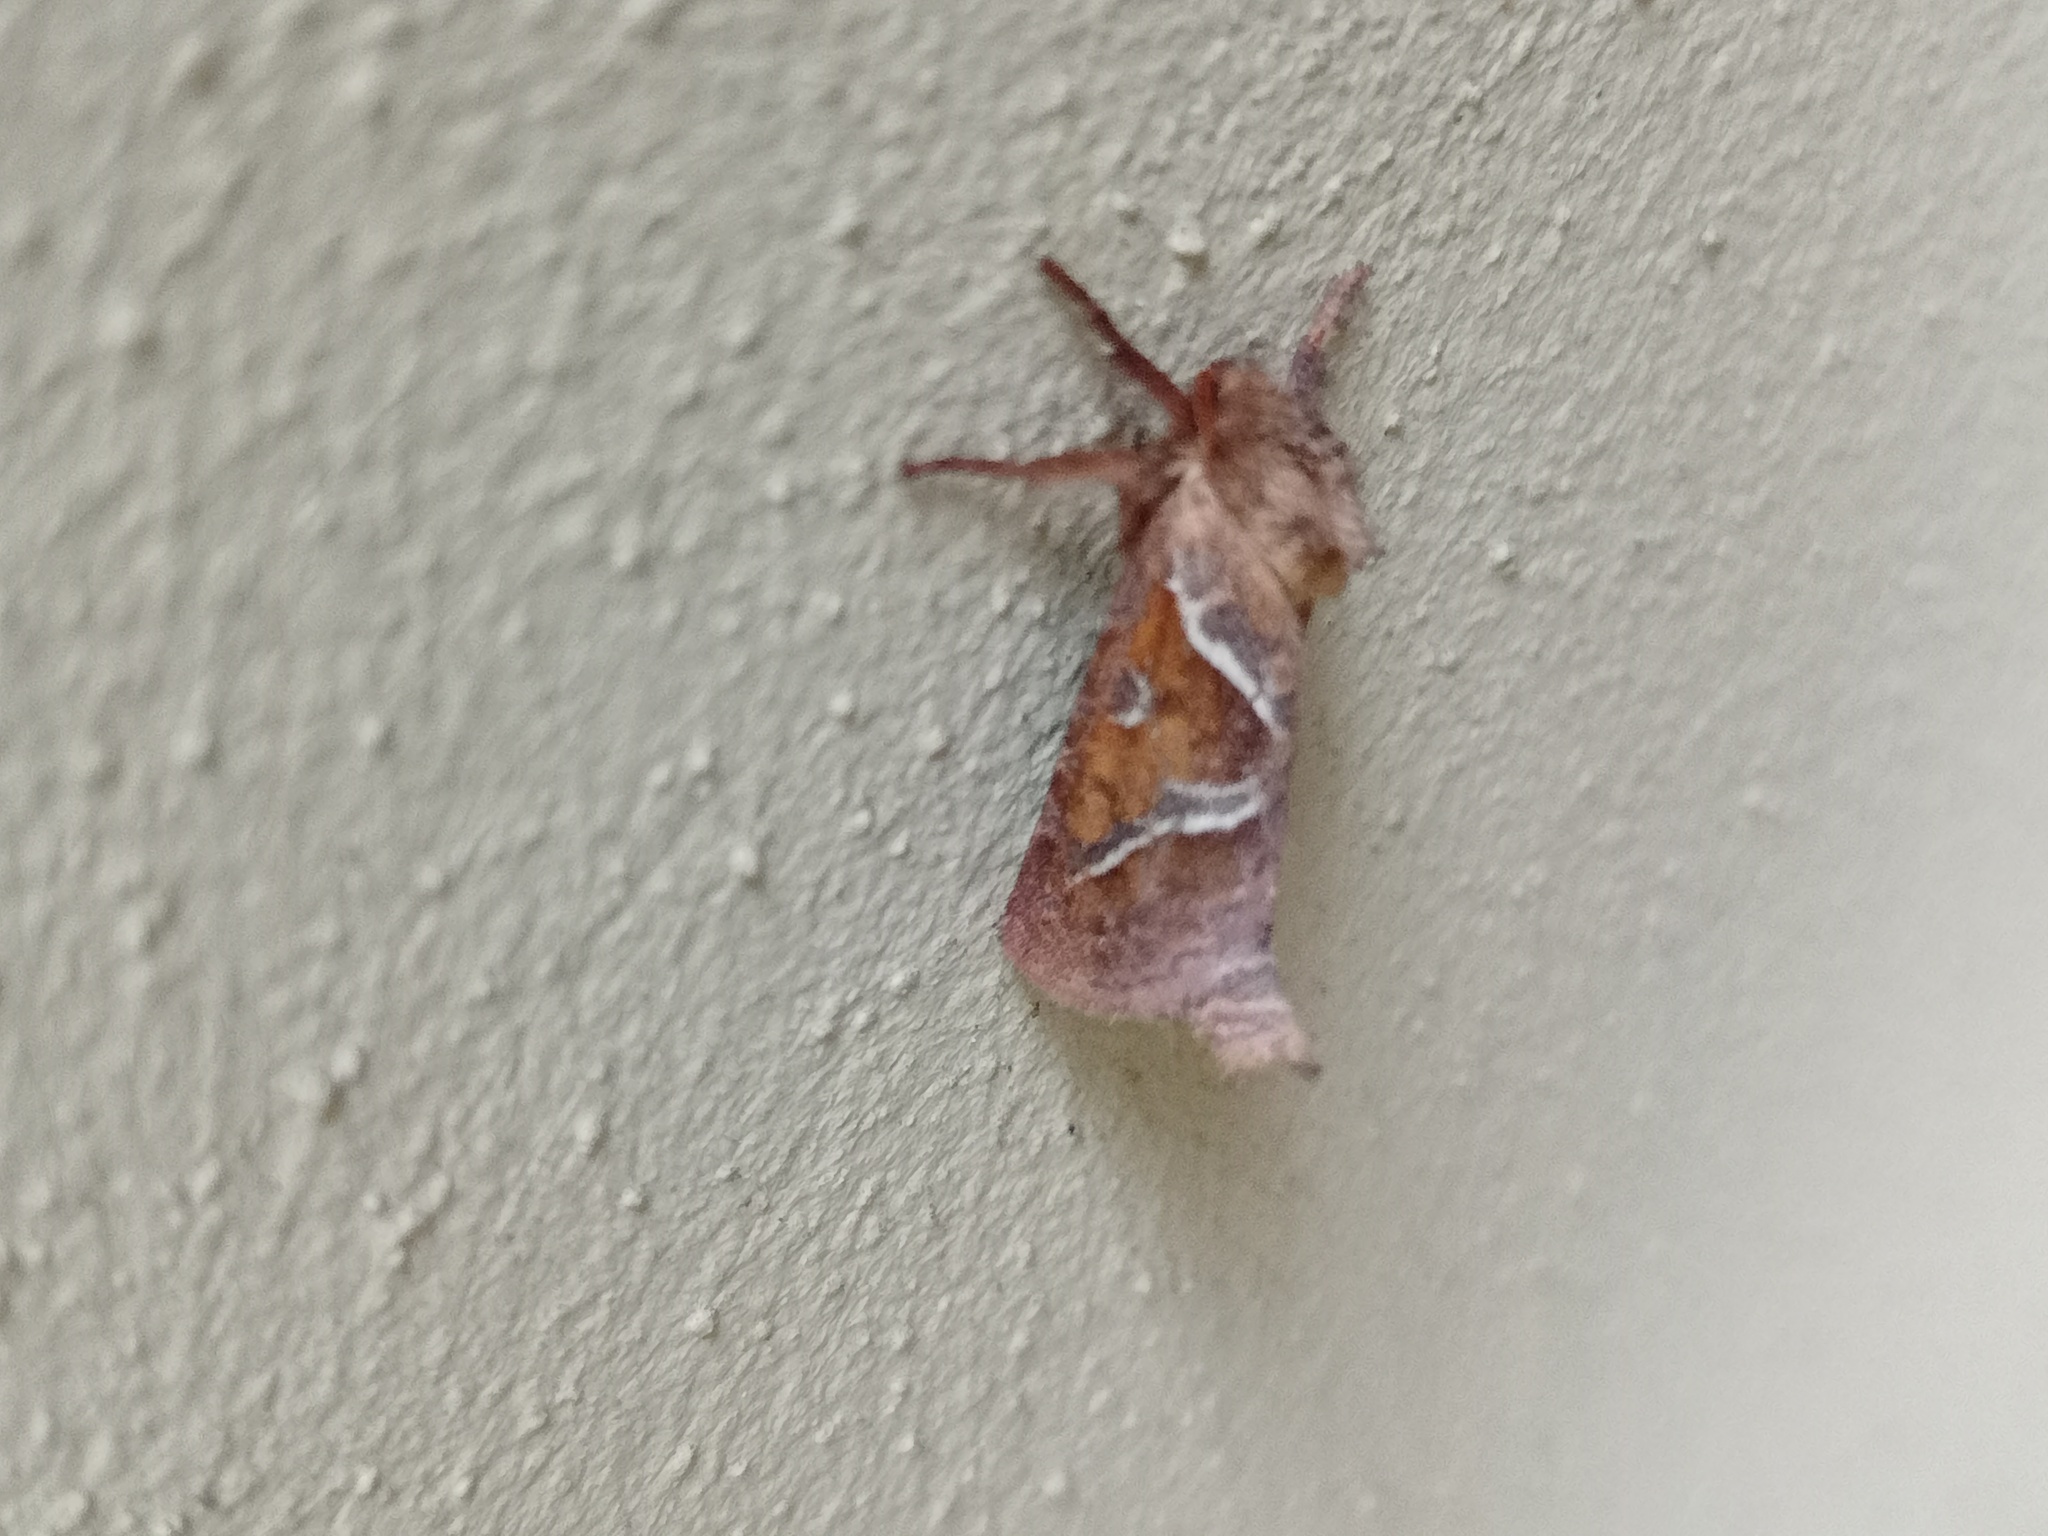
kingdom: Animalia
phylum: Arthropoda
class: Insecta
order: Lepidoptera
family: Hepialidae
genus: Triodia
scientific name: Triodia sylvina
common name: Orange swift
